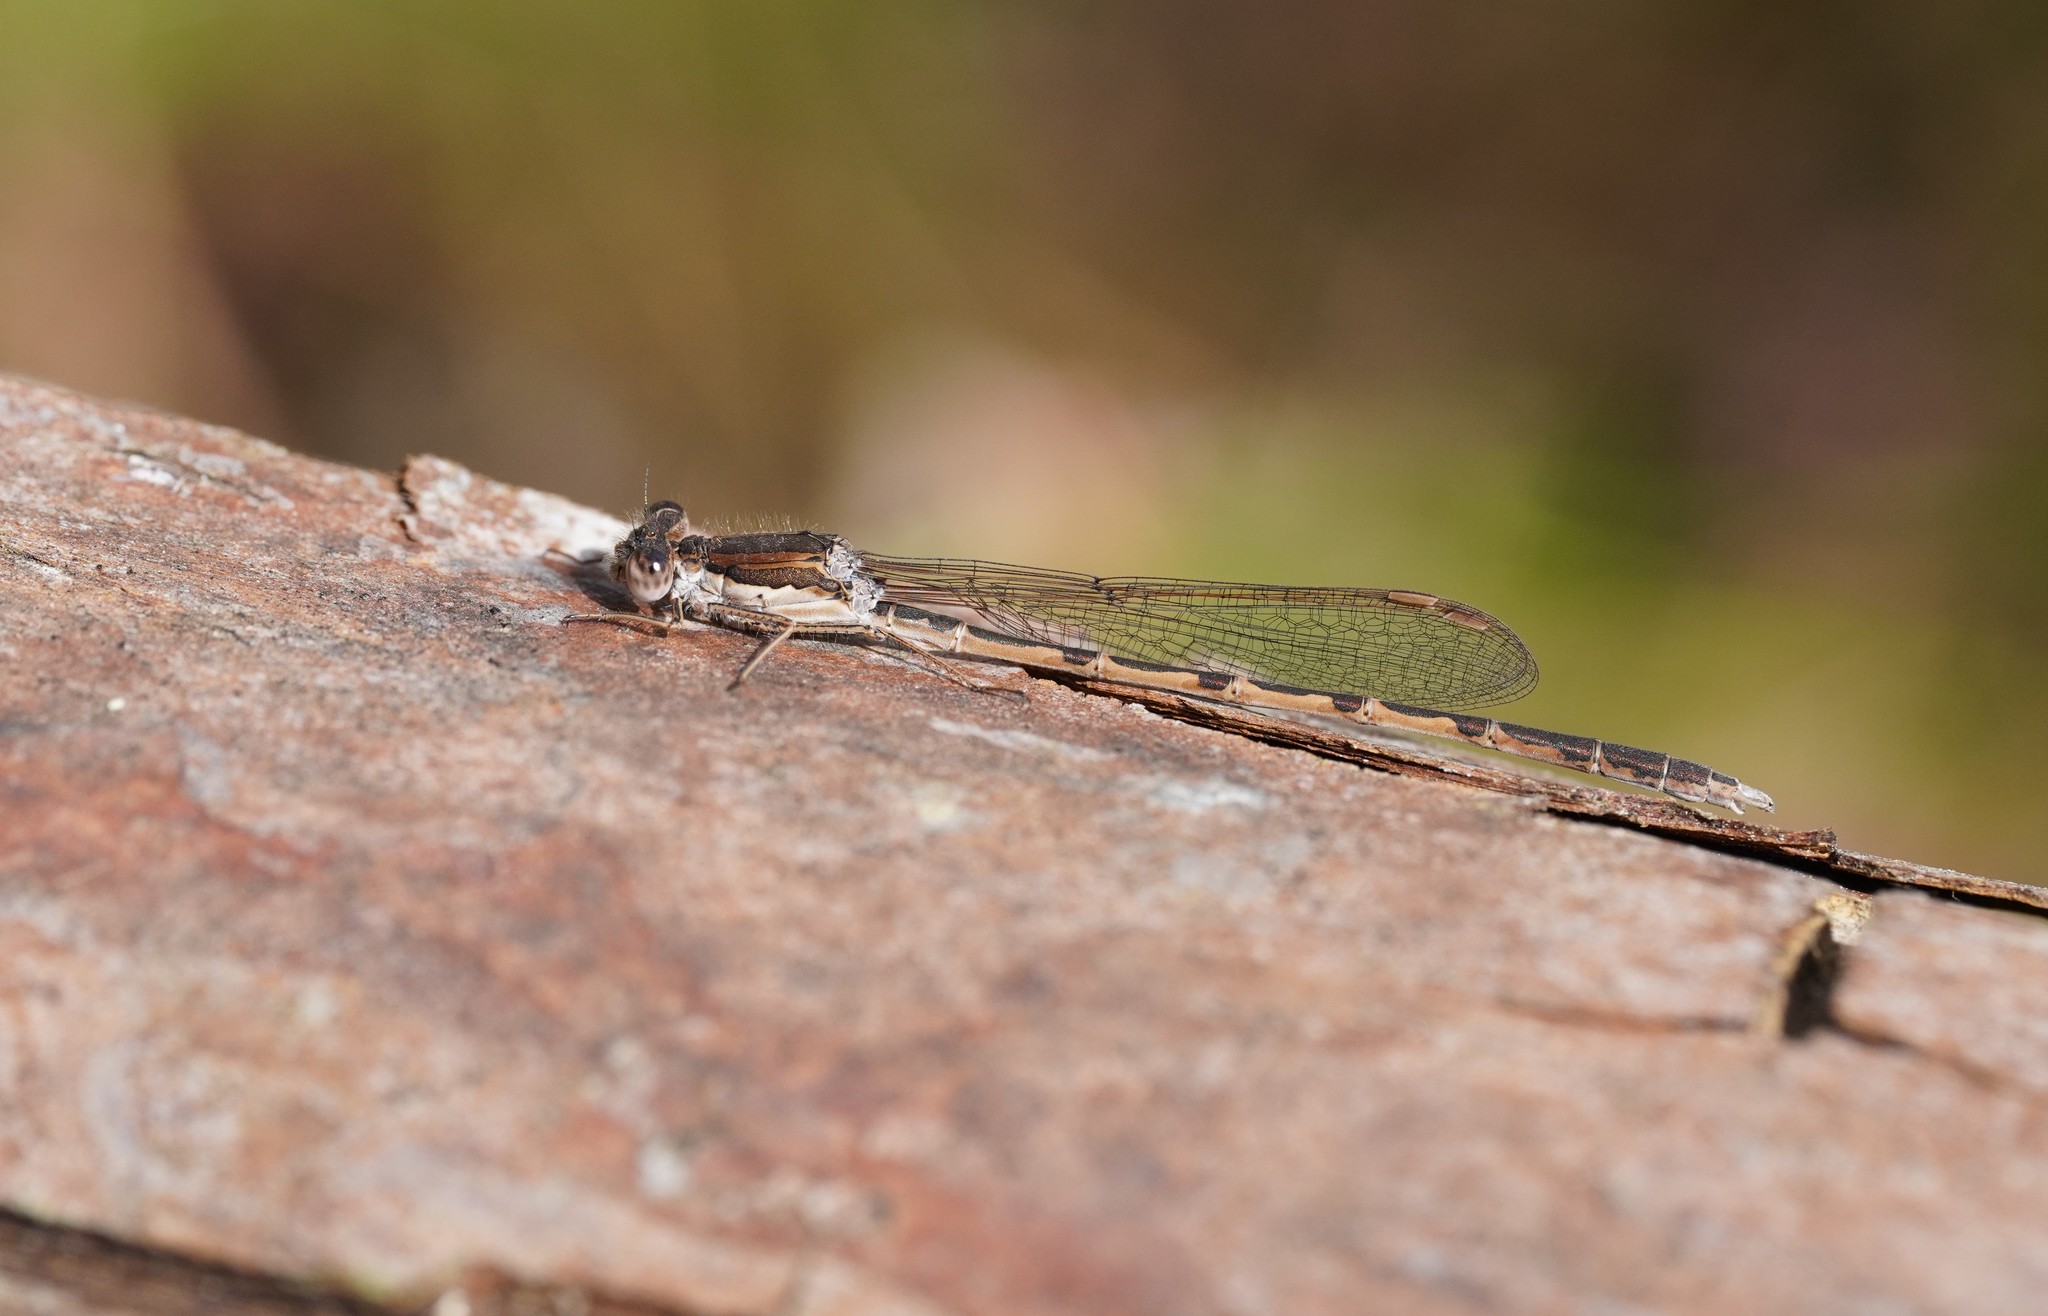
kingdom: Animalia
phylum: Arthropoda
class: Insecta
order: Odonata
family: Lestidae
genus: Sympecma
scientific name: Sympecma fusca
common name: Common winter damsel
